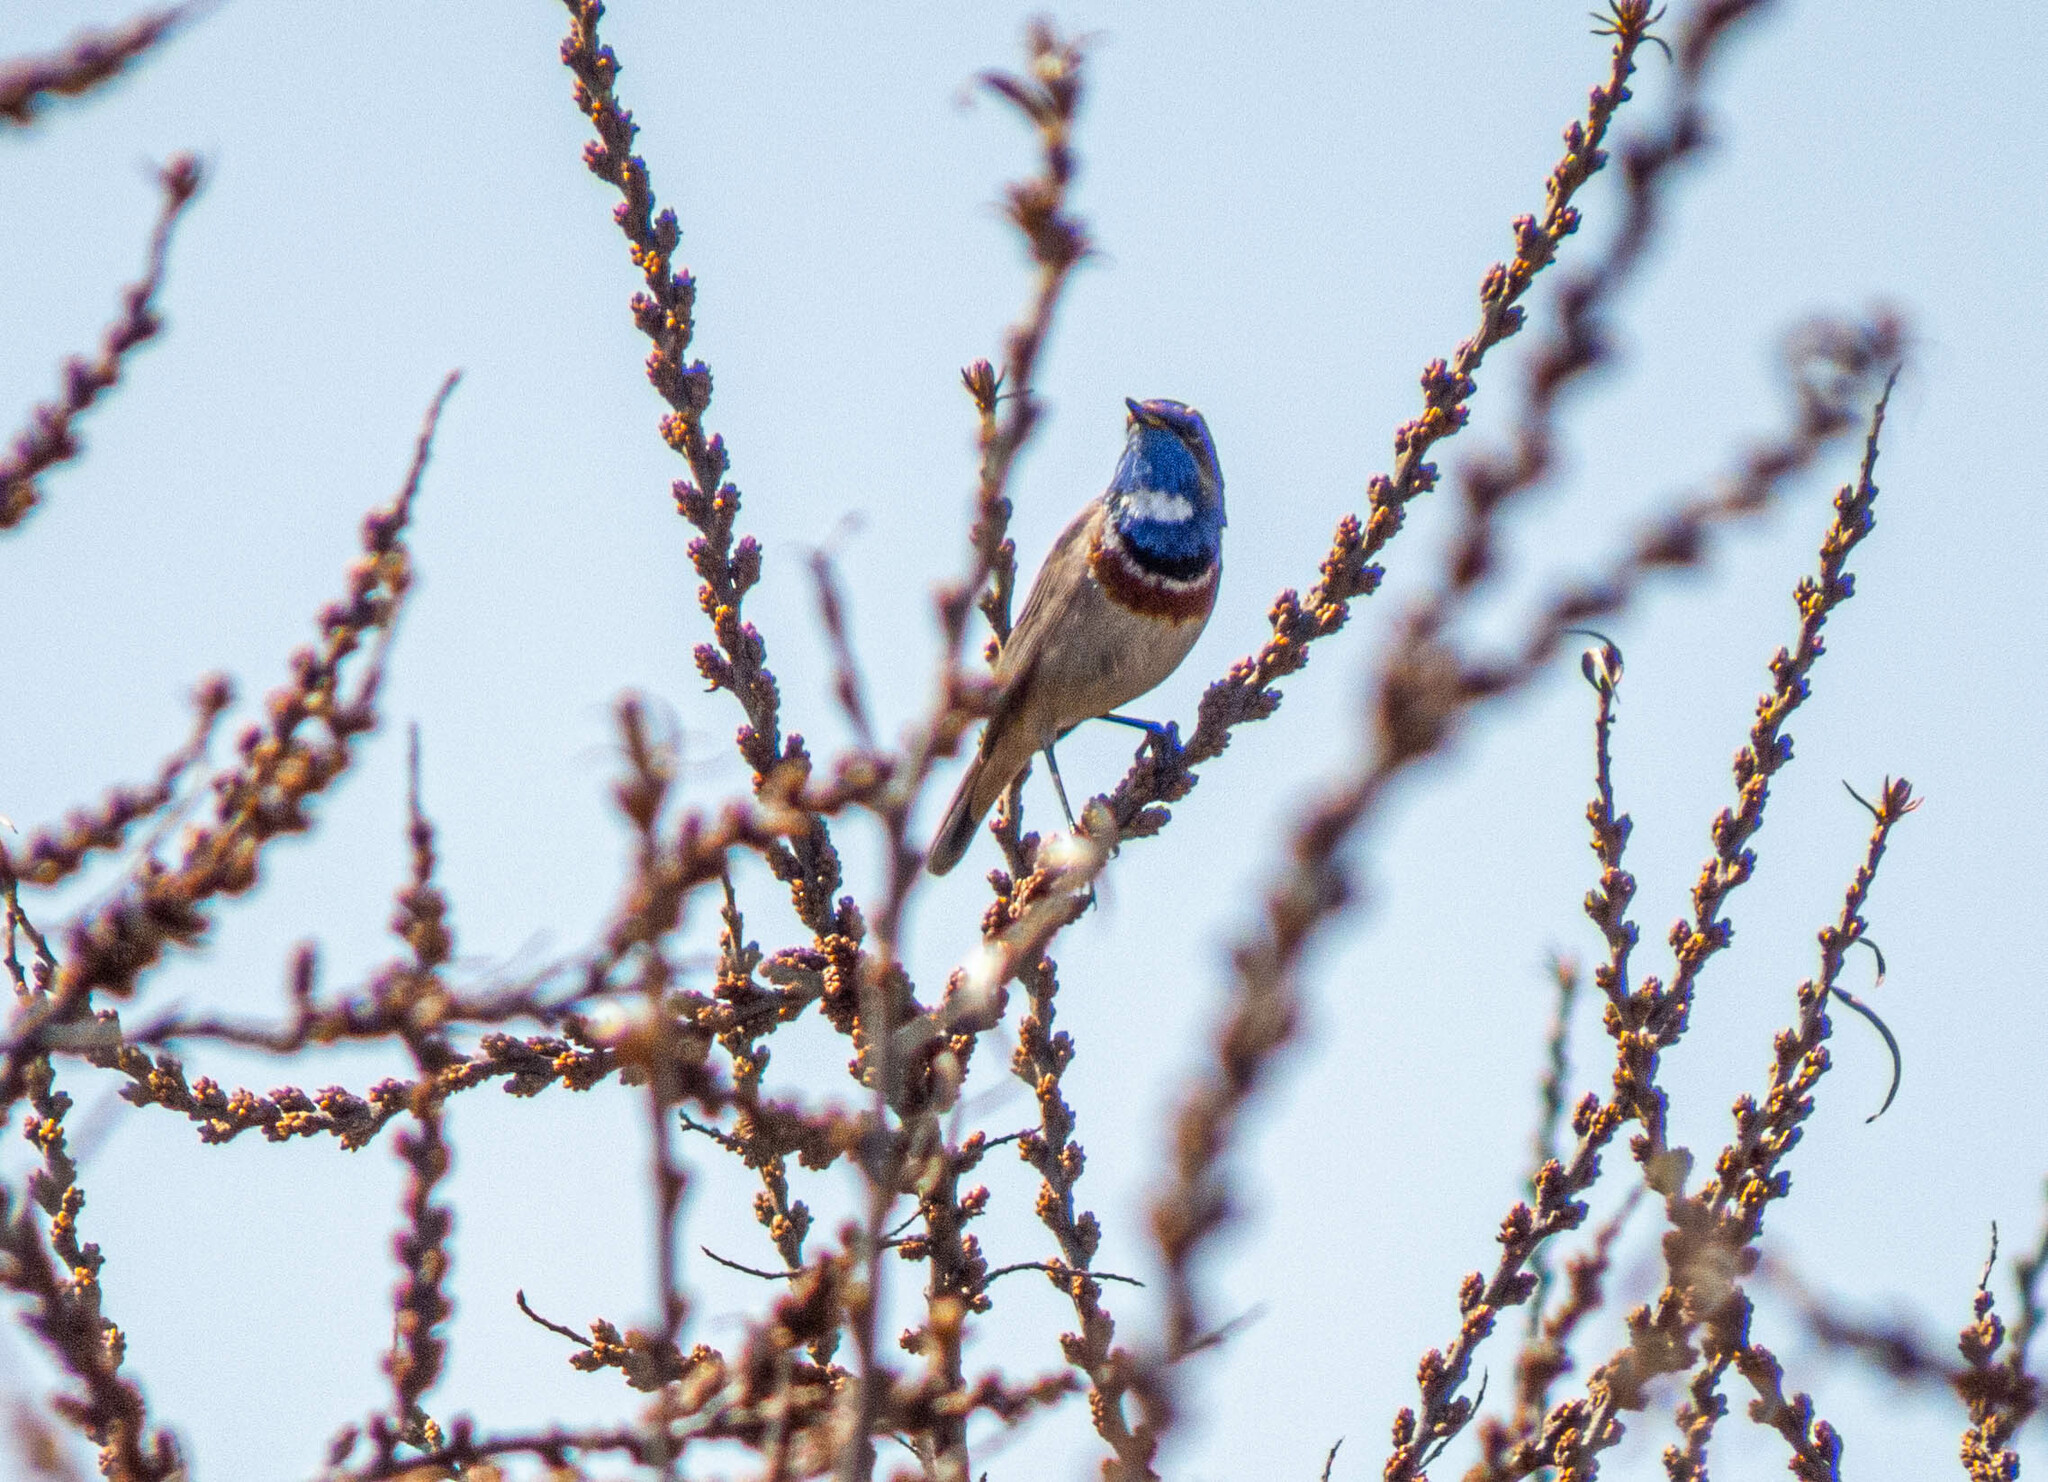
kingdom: Animalia
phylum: Chordata
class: Aves
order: Passeriformes
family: Muscicapidae
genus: Luscinia
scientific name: Luscinia svecica
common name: Bluethroat
